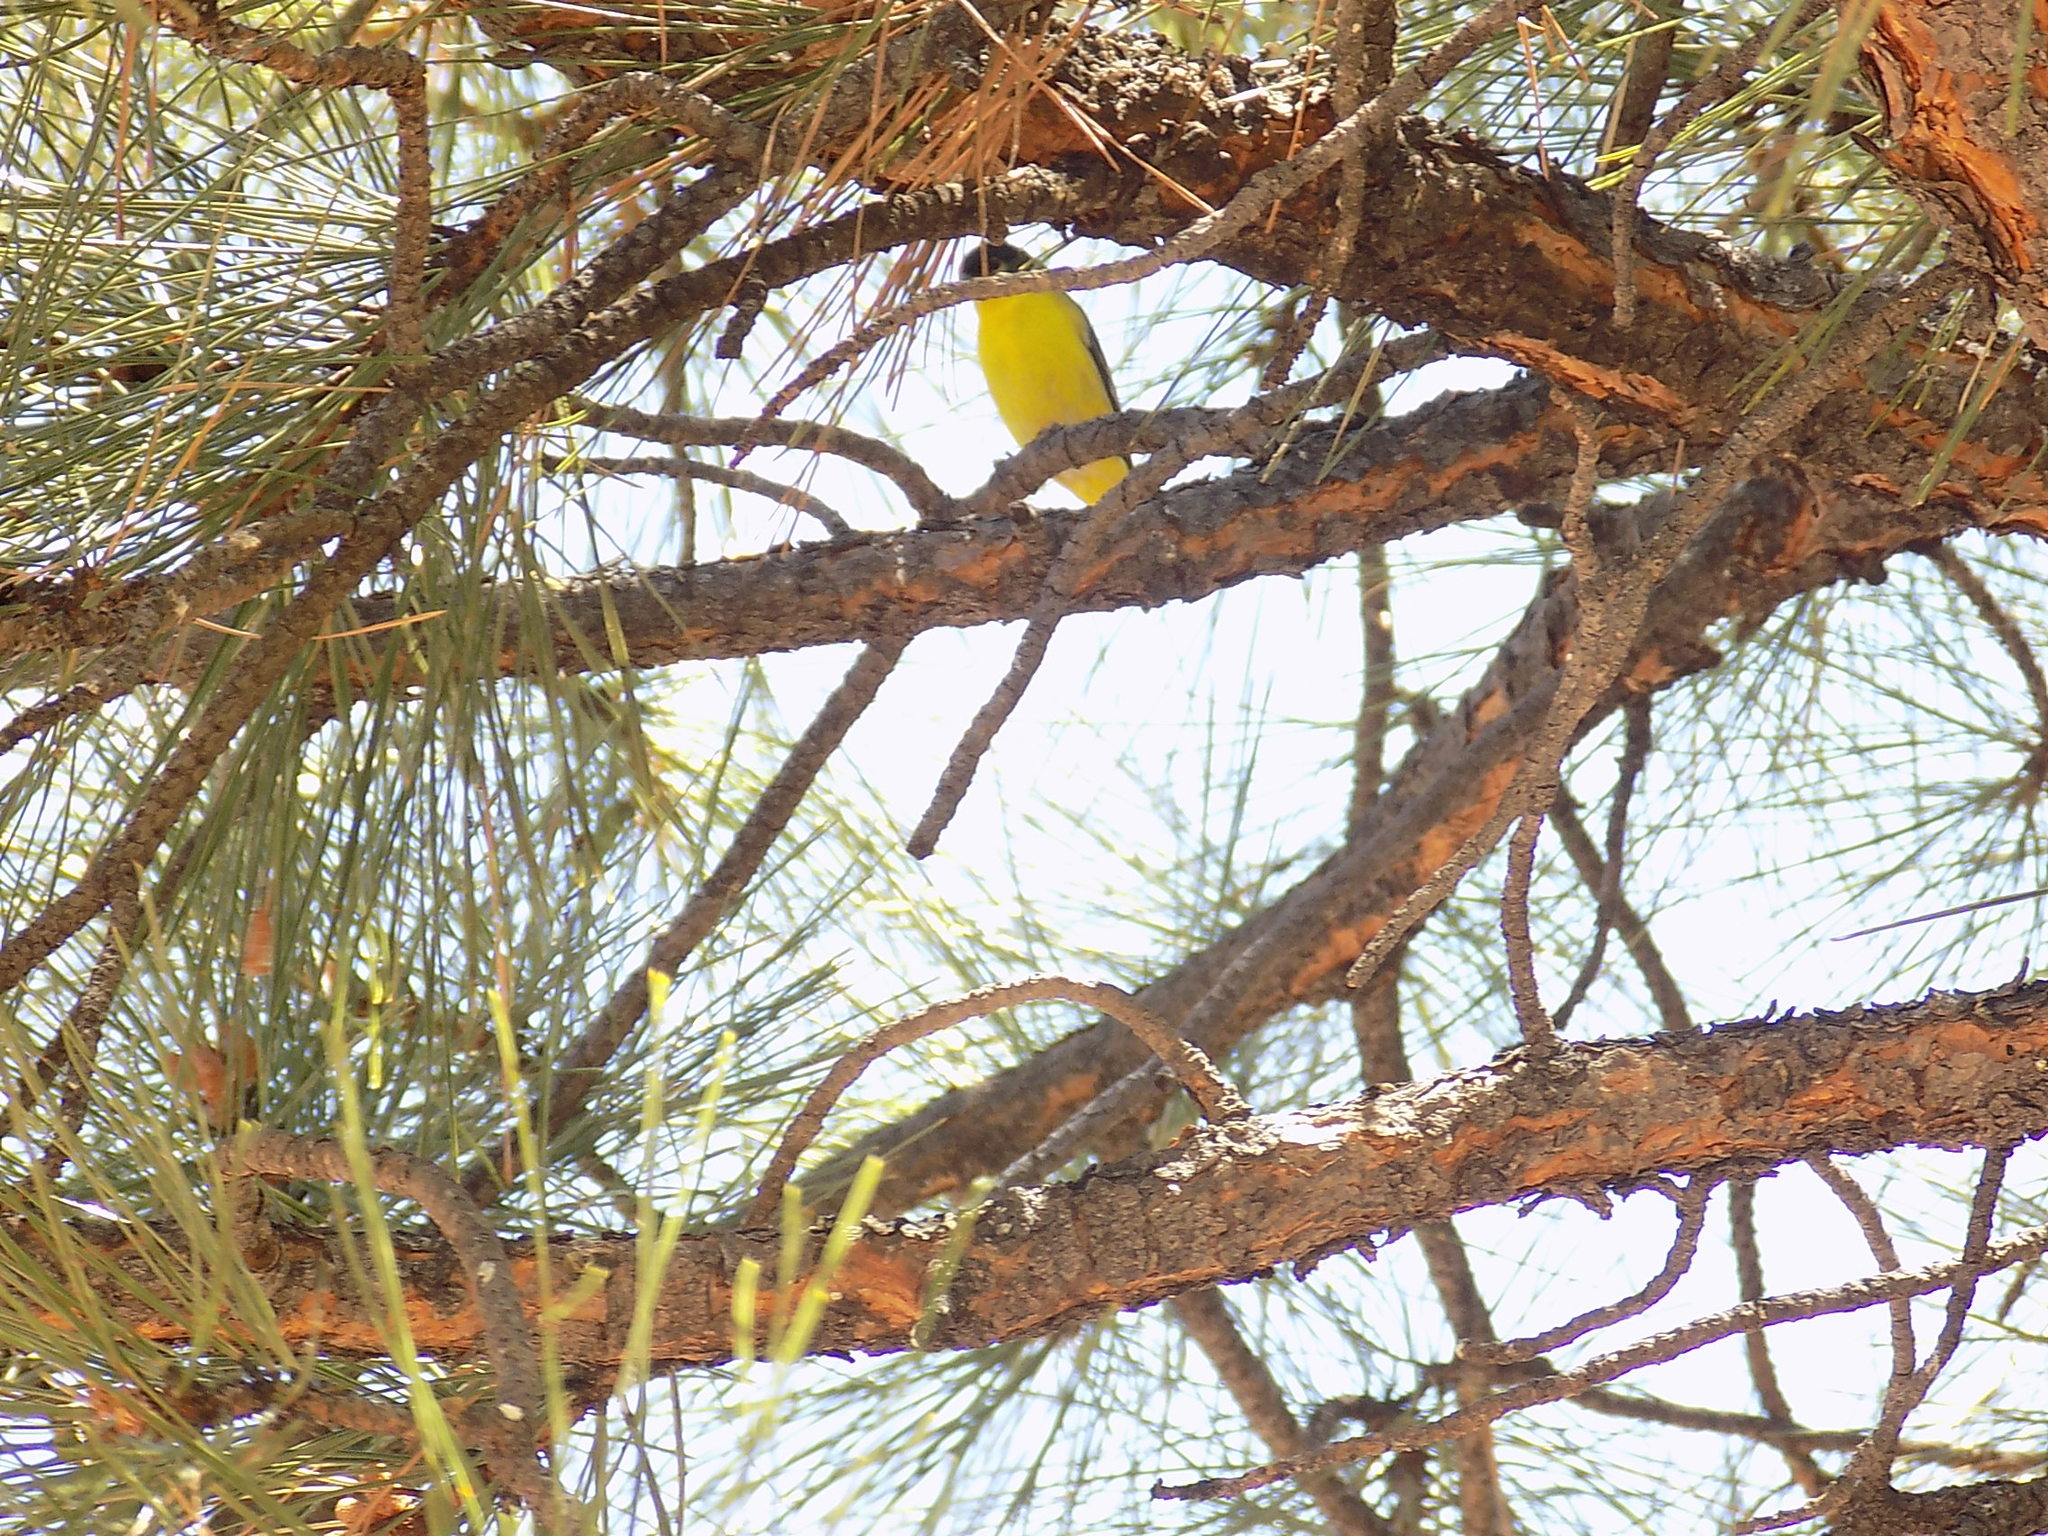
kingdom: Animalia
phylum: Chordata
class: Aves
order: Passeriformes
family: Fringillidae
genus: Spinus
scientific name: Spinus psaltria
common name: Lesser goldfinch
